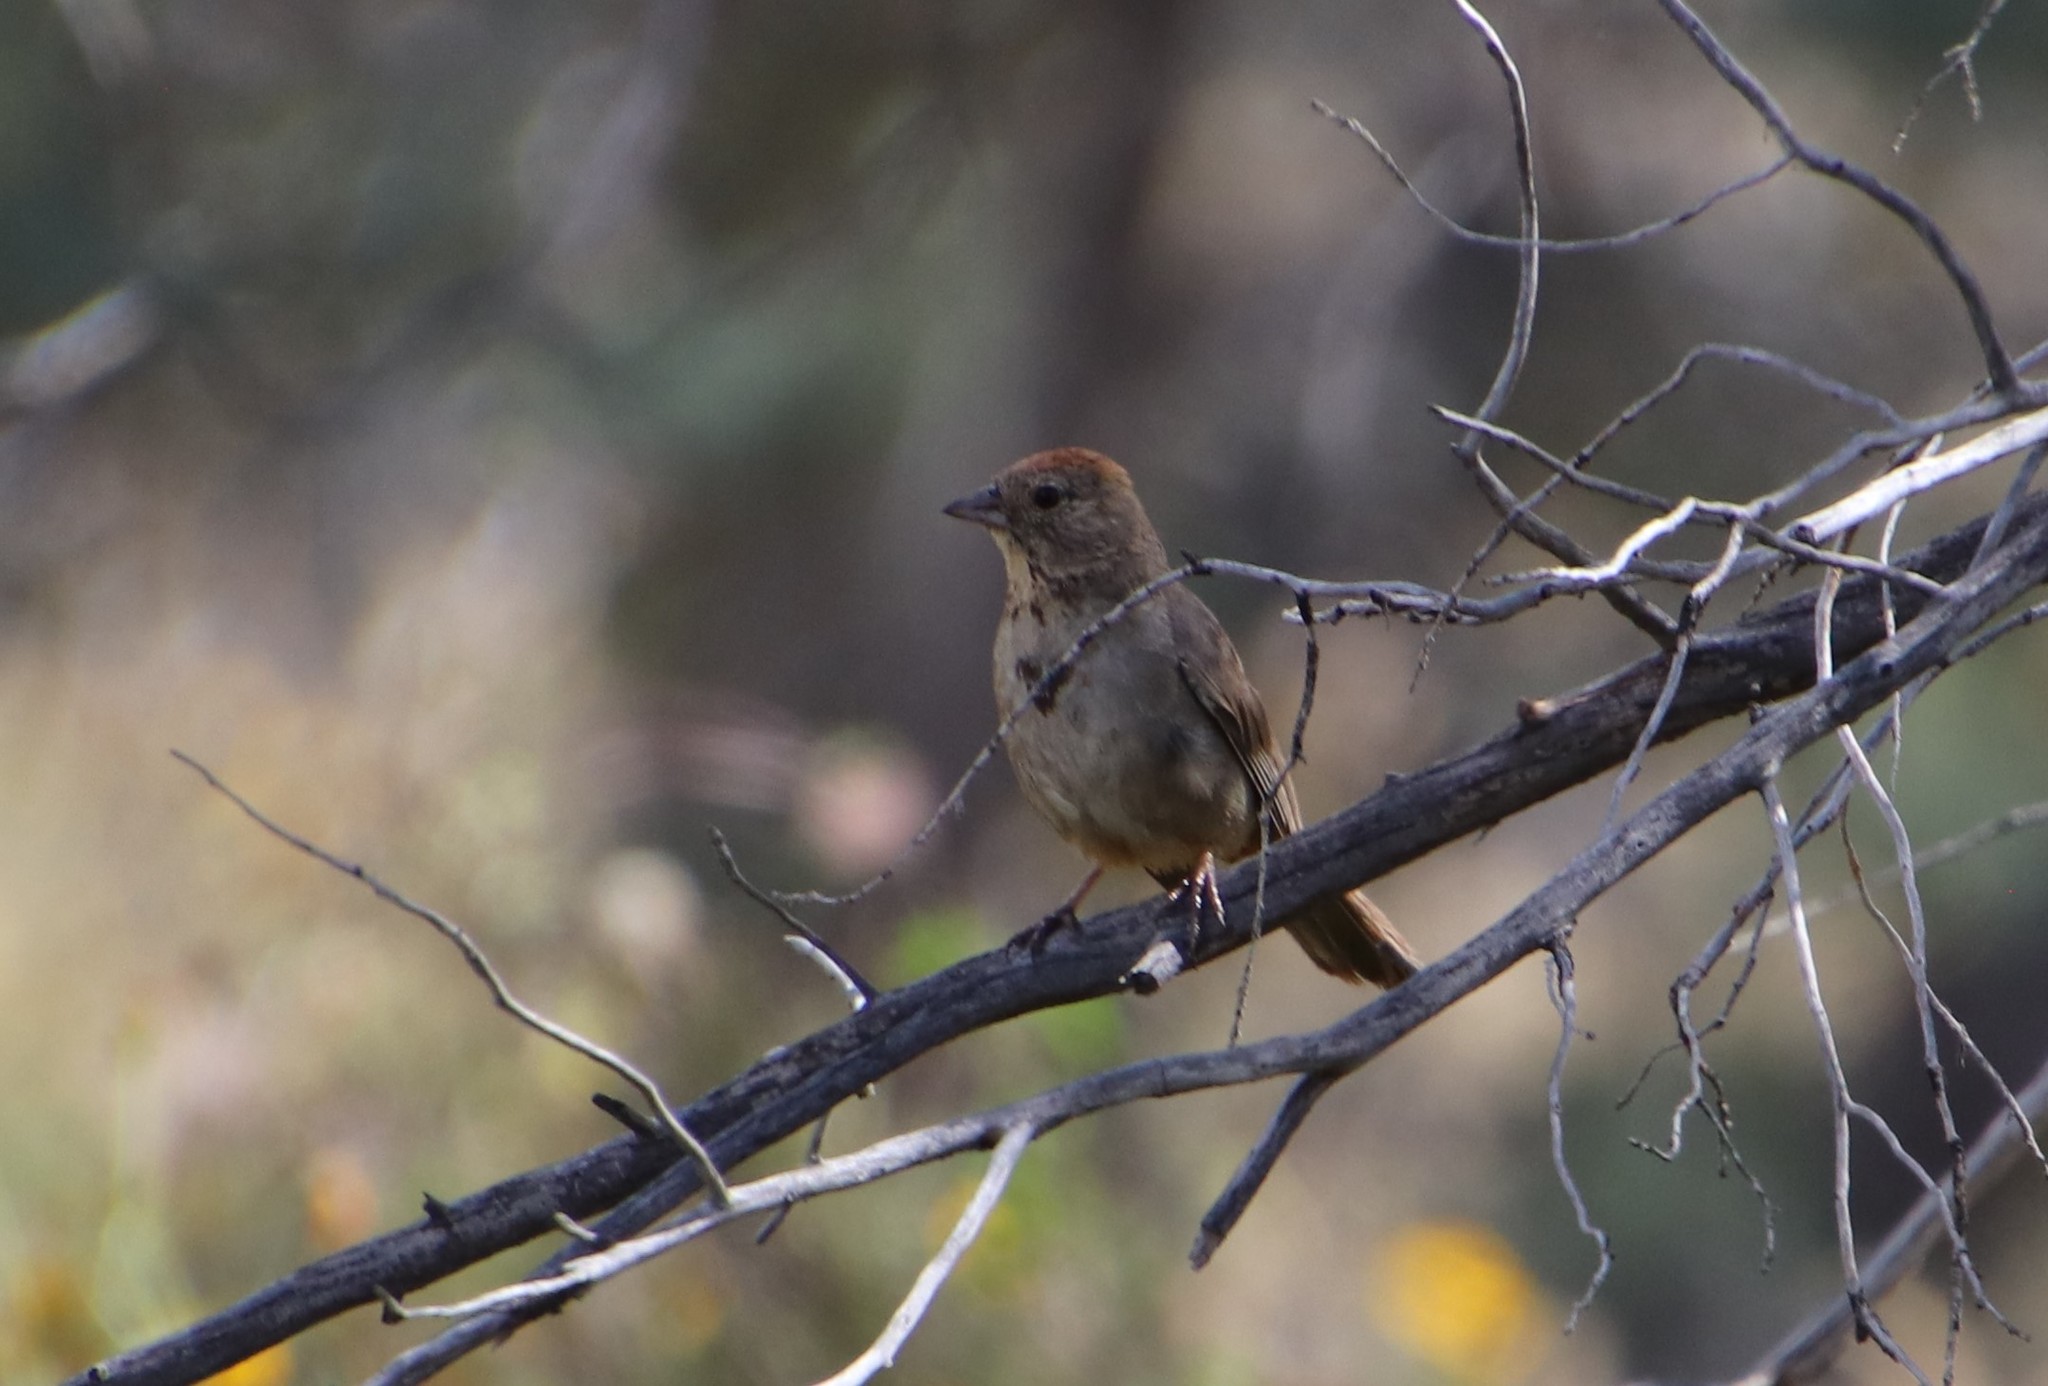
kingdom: Animalia
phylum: Chordata
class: Aves
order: Passeriformes
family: Passerellidae
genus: Melozone
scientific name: Melozone fusca
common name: Canyon towhee
